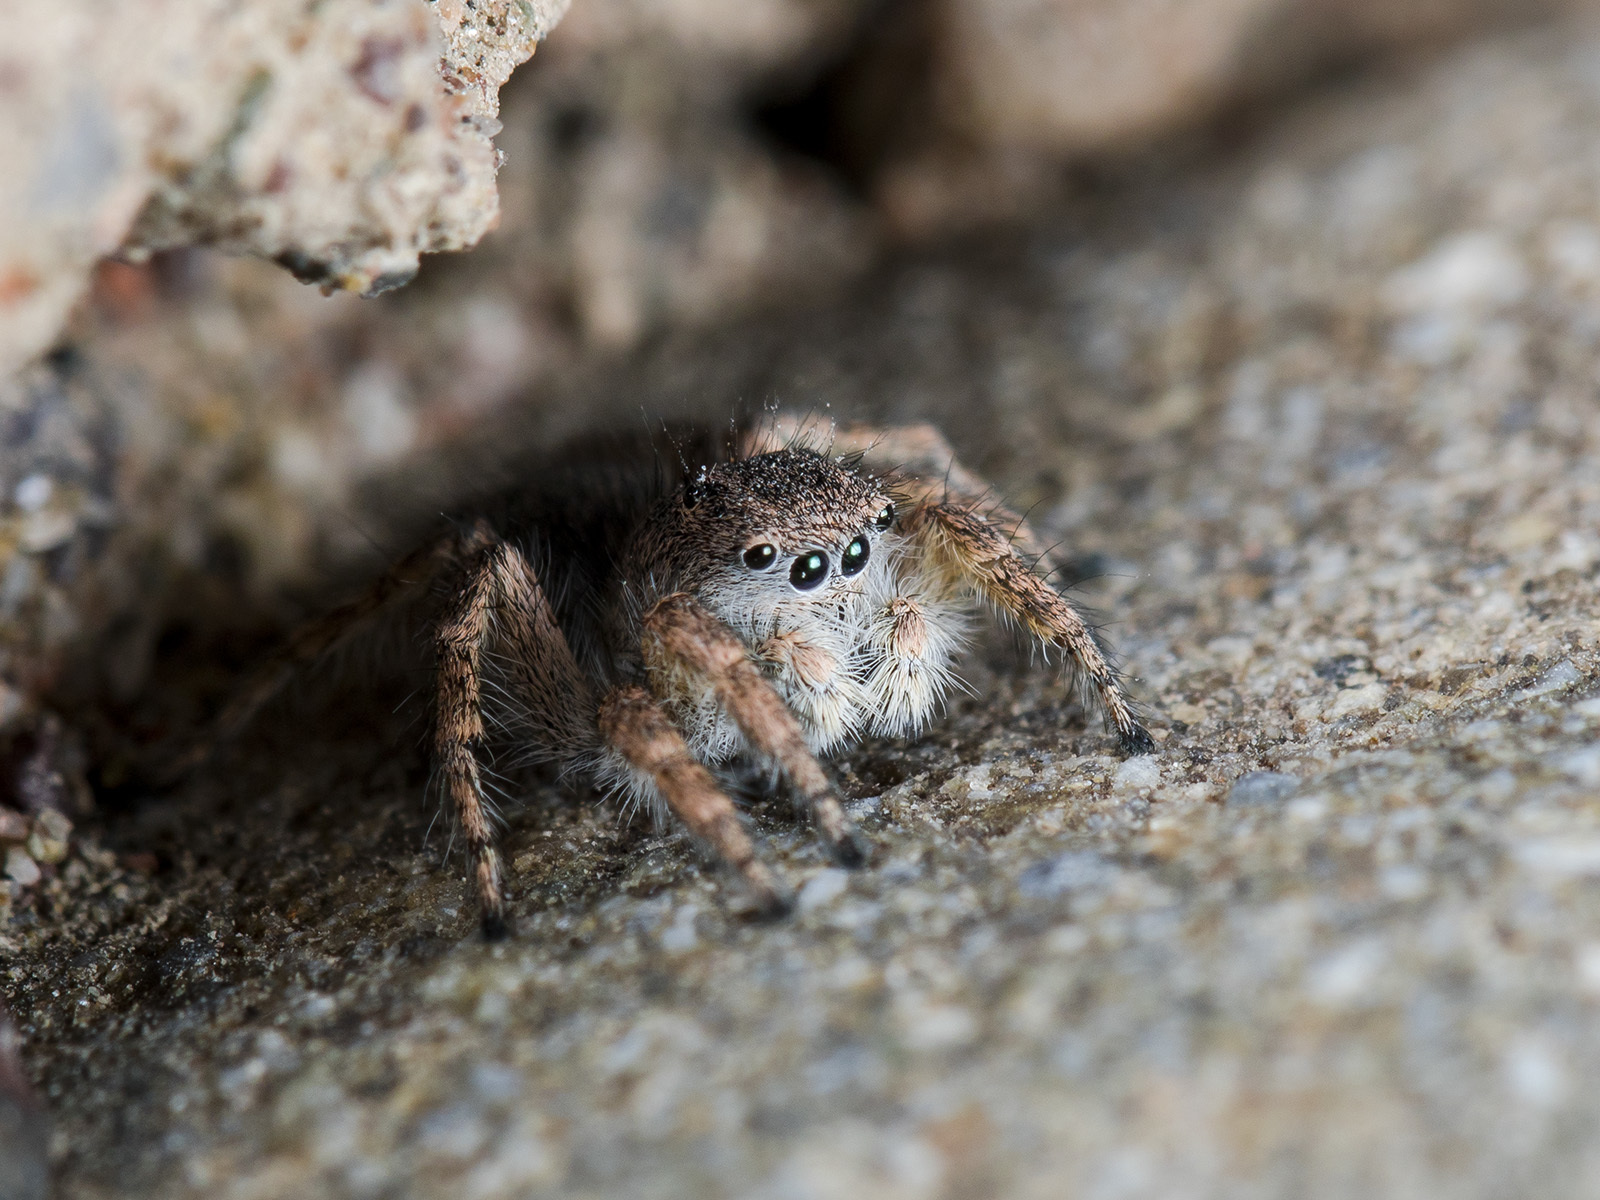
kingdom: Animalia
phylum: Arthropoda
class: Arachnida
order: Araneae
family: Salticidae
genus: Aelurillus
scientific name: Aelurillus dubatolovi
